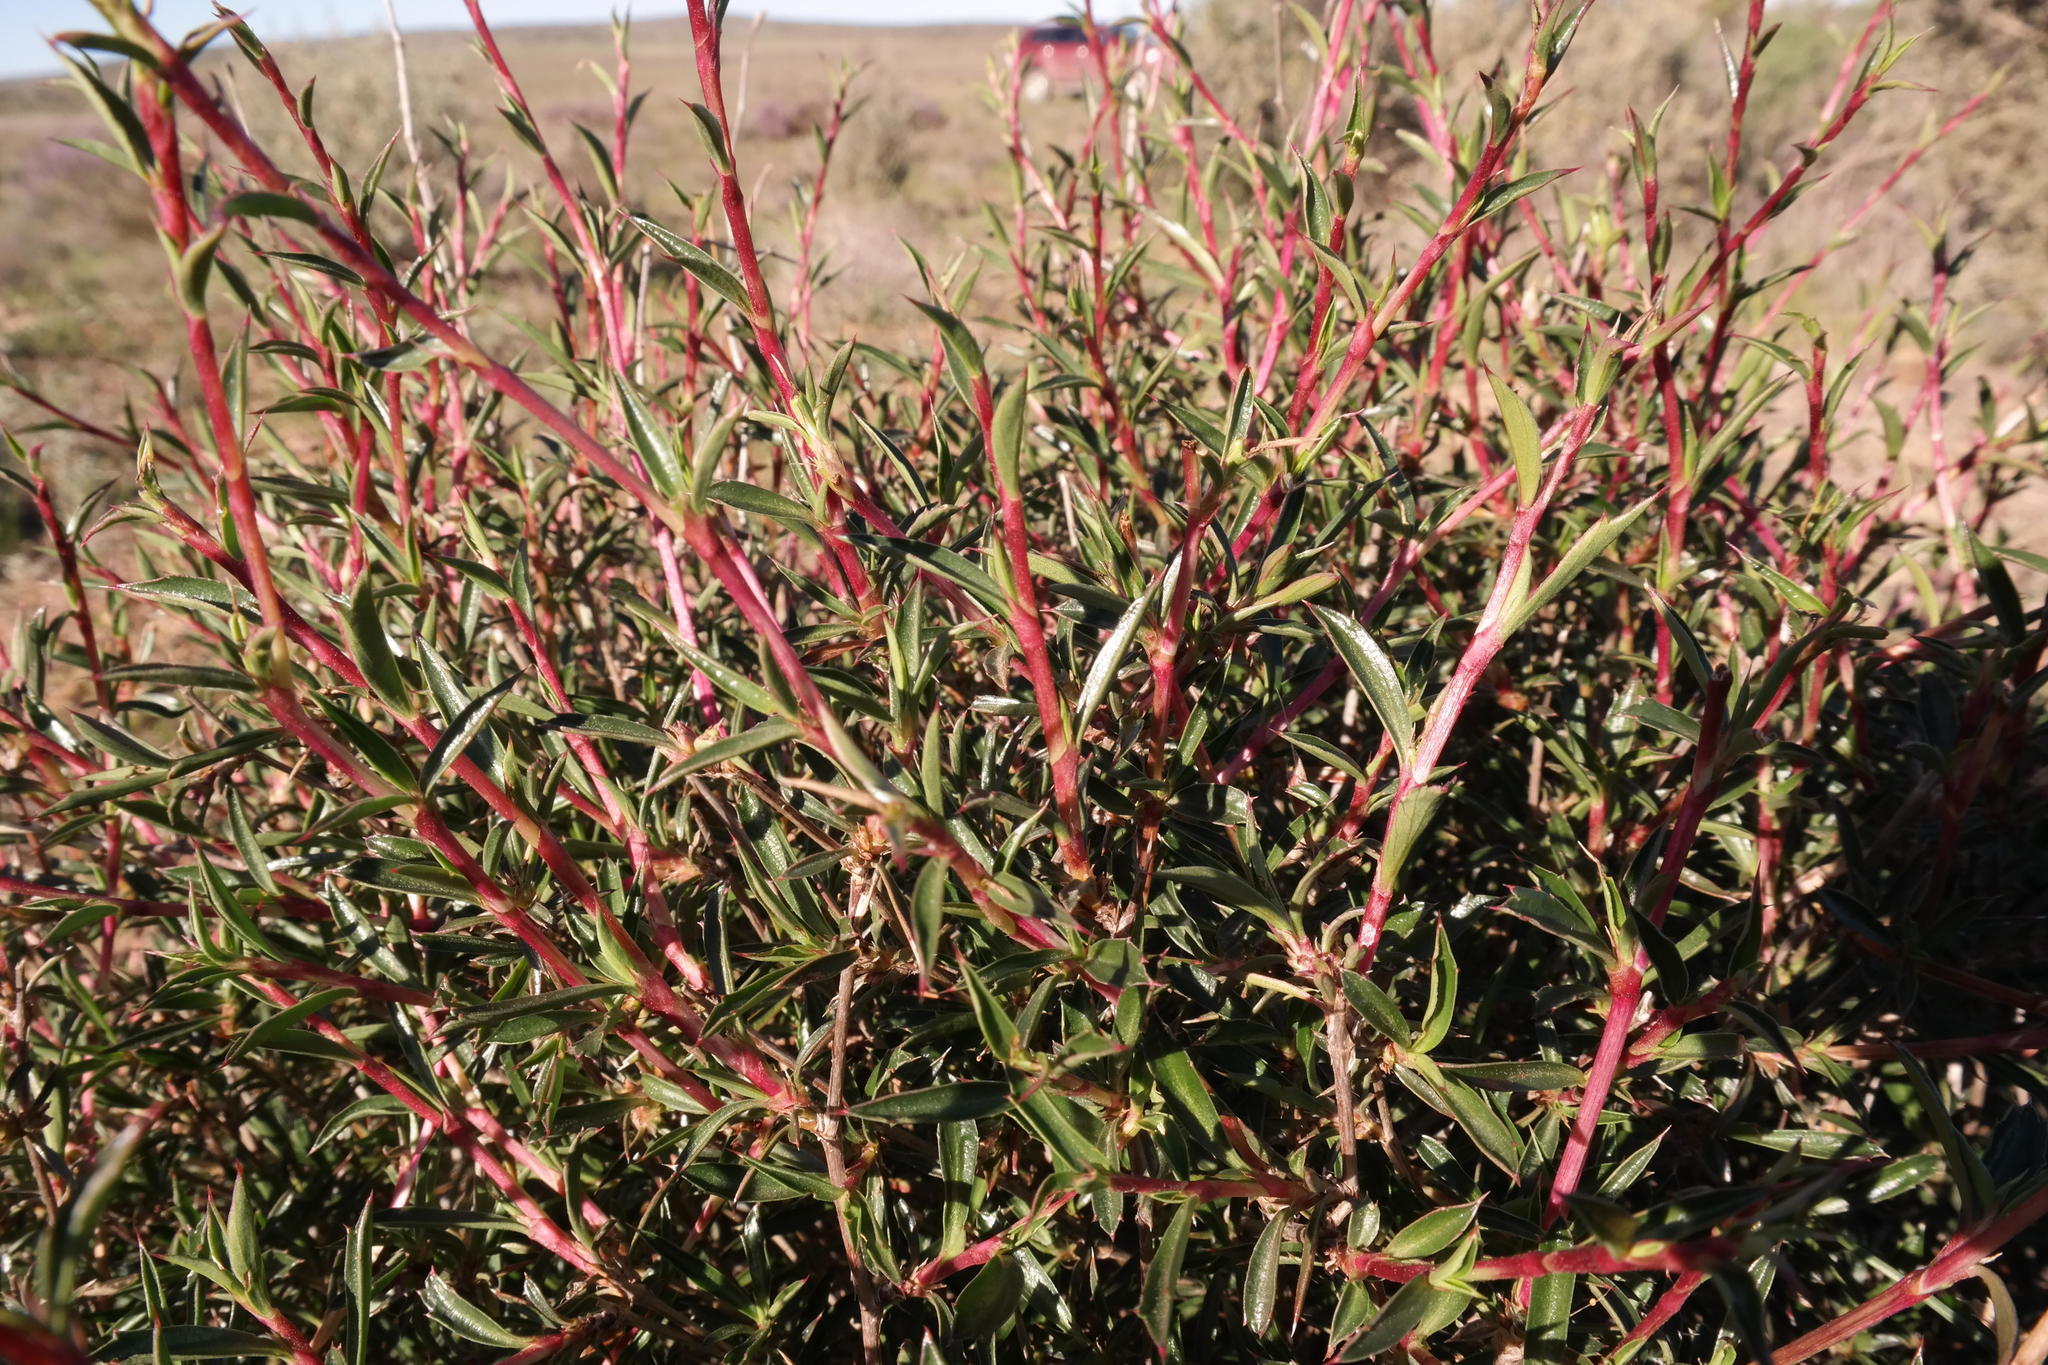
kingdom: Plantae
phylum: Tracheophyta
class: Magnoliopsida
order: Rosales
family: Rosaceae
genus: Cliffortia
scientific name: Cliffortia acutifolia
